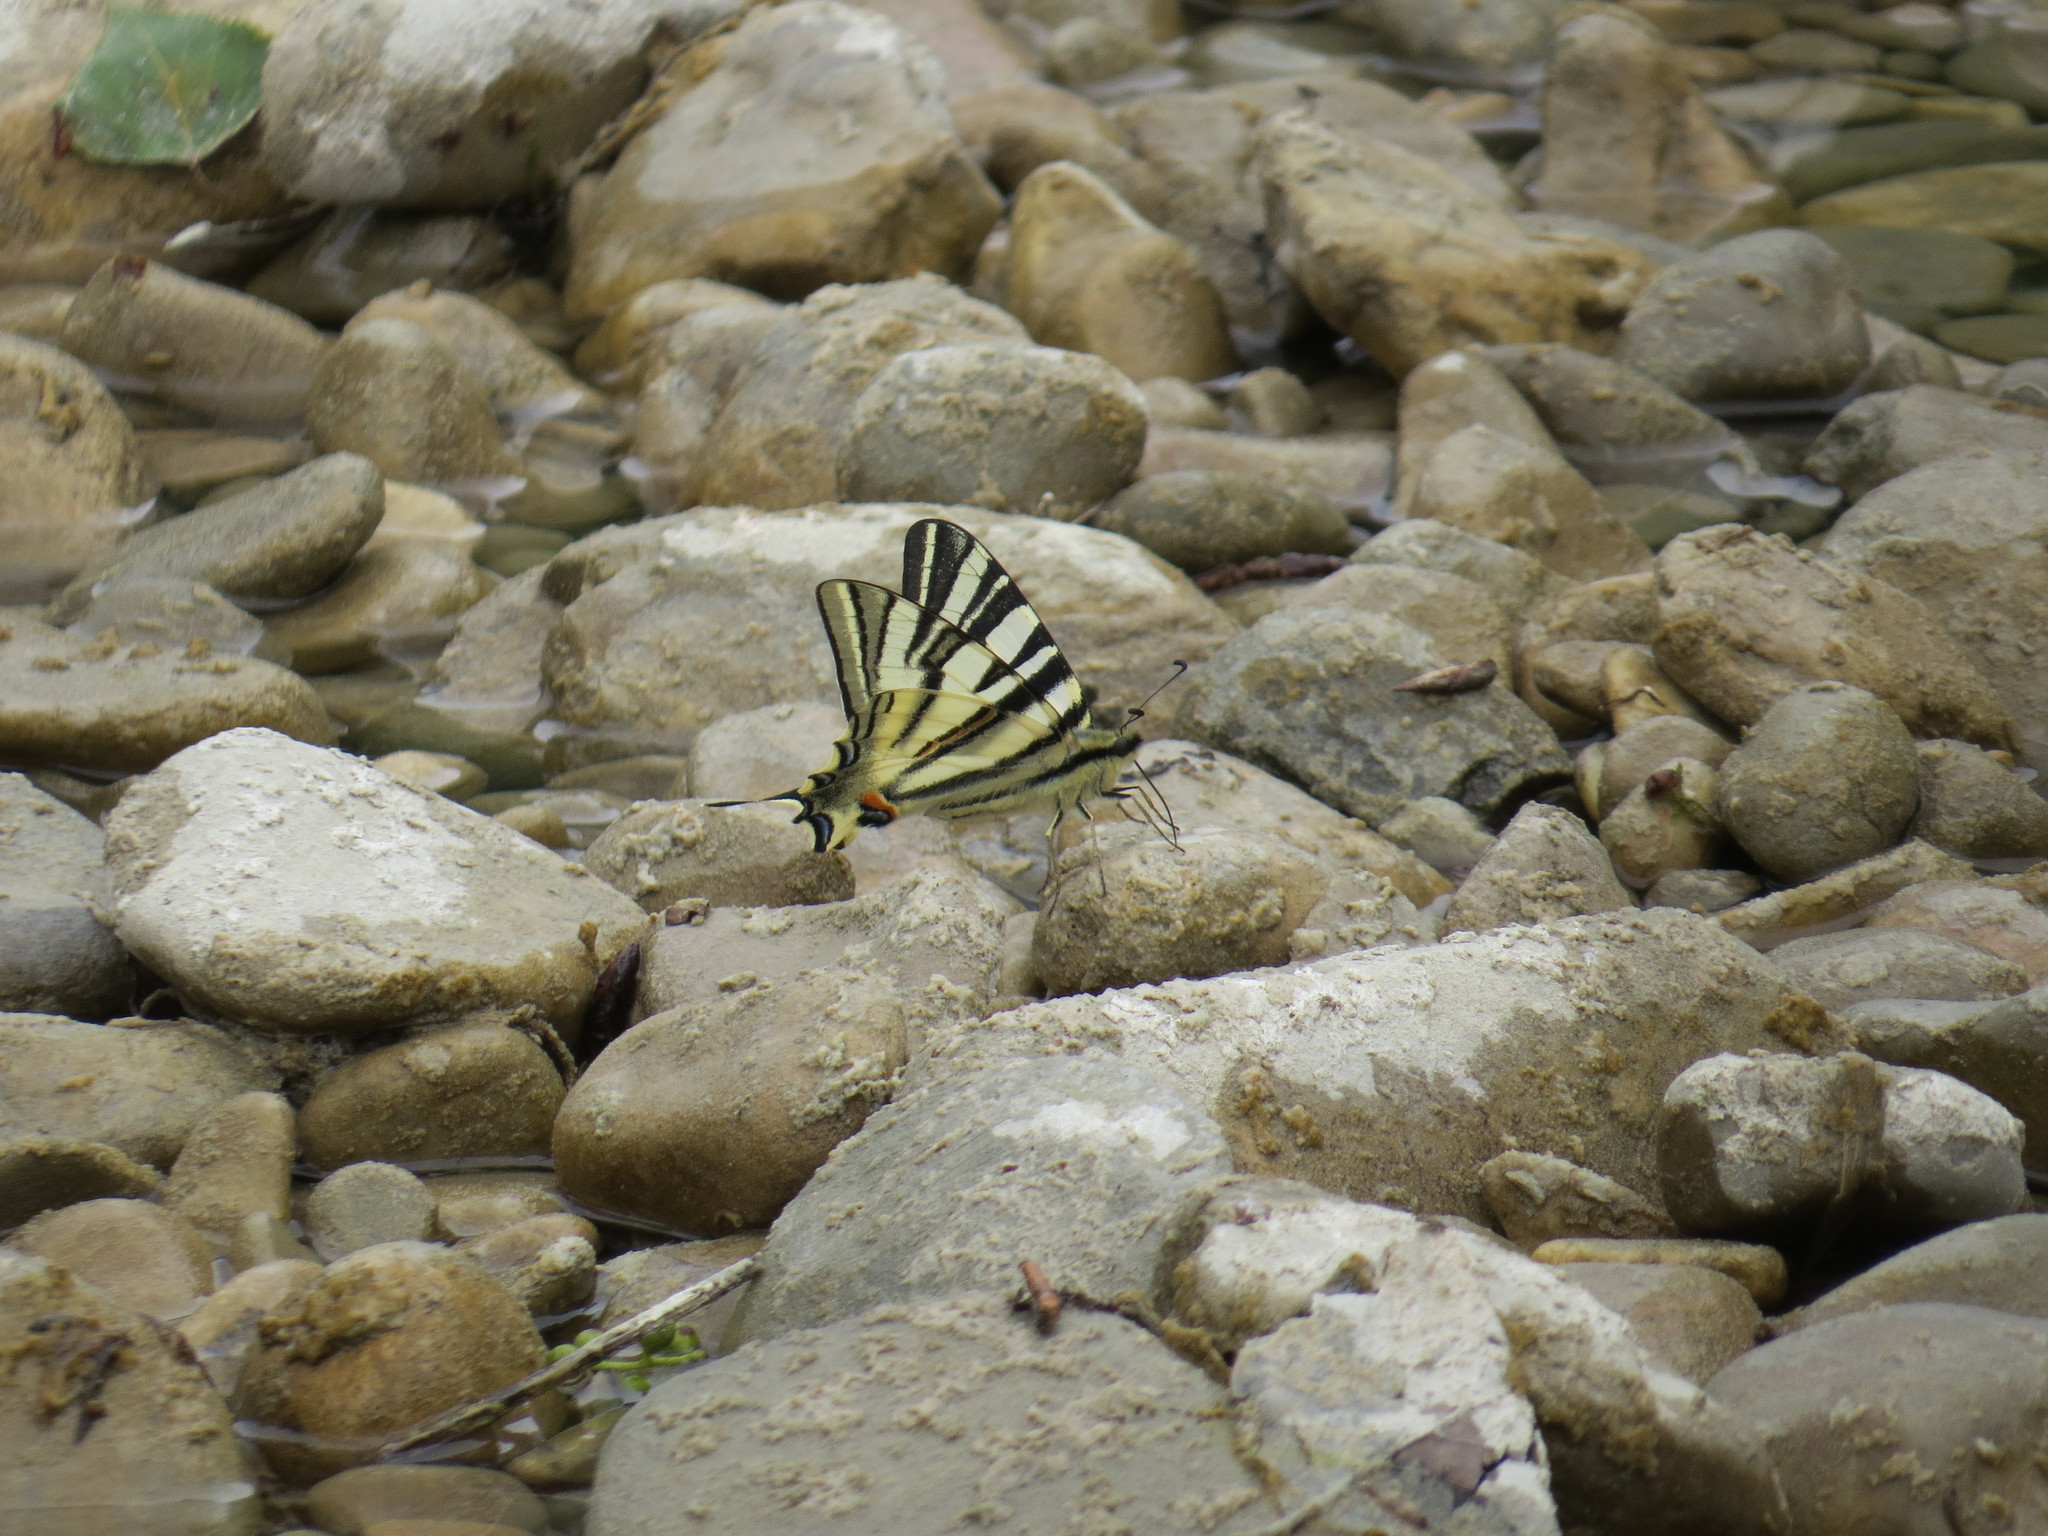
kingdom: Animalia
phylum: Arthropoda
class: Insecta
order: Lepidoptera
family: Papilionidae
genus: Iphiclides
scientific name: Iphiclides podalirius
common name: Scarce swallowtail
